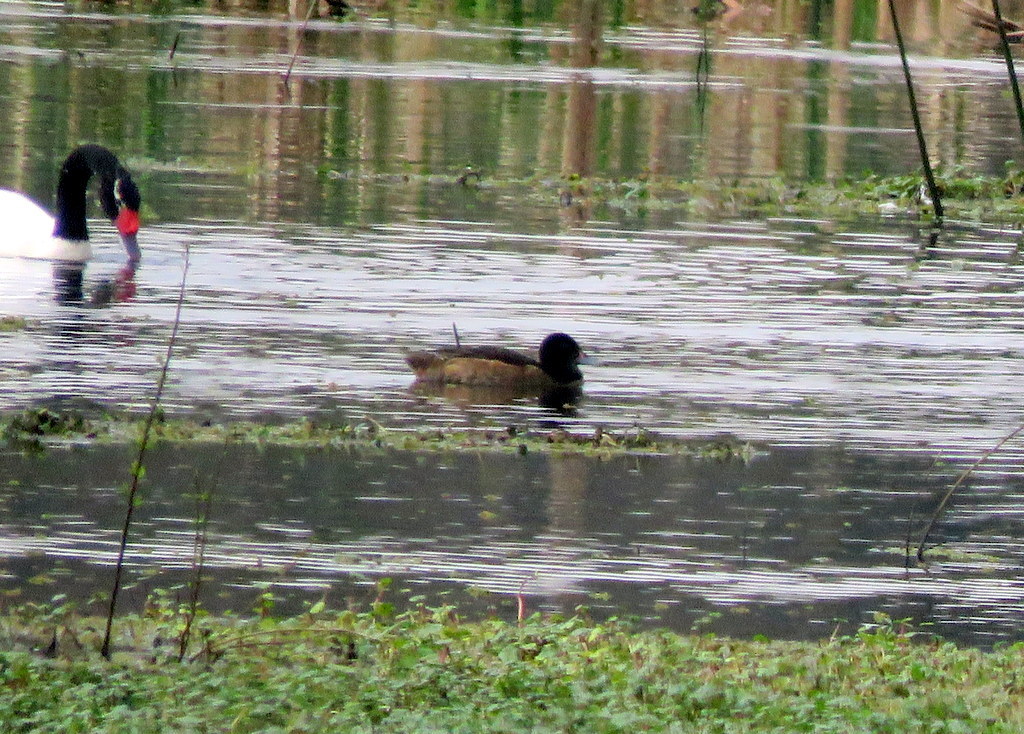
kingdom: Animalia
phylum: Chordata
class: Aves
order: Anseriformes
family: Anatidae
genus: Heteronetta
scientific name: Heteronetta atricapilla
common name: Black-headed duck
